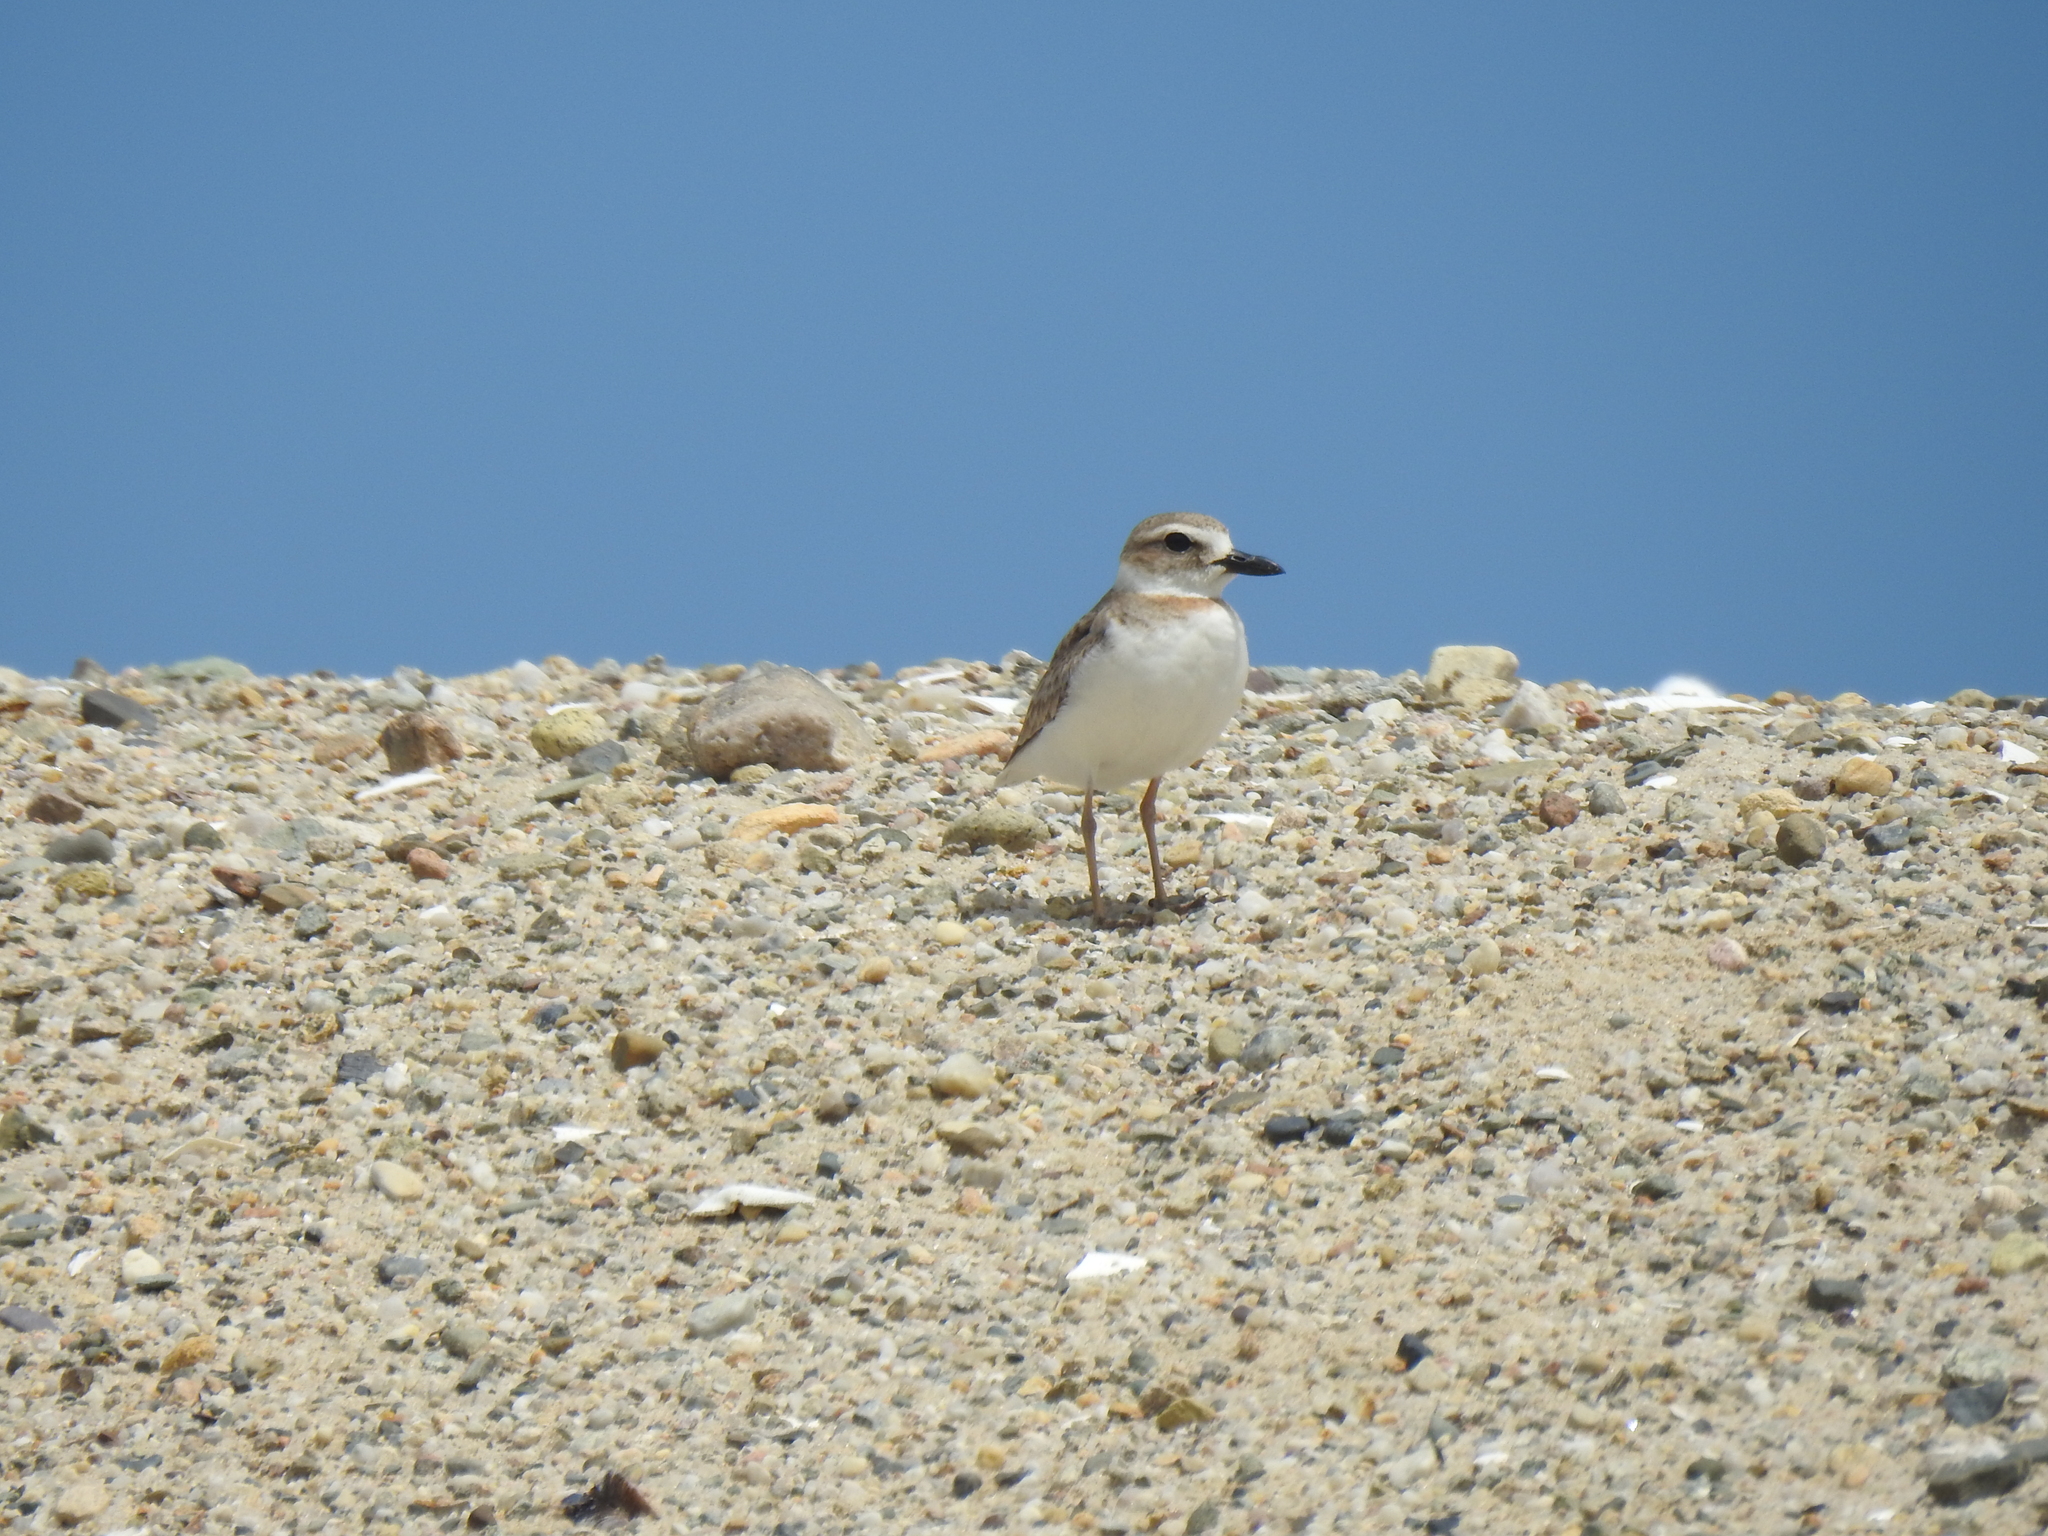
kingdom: Animalia
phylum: Chordata
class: Aves
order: Charadriiformes
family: Charadriidae
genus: Anarhynchus
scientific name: Anarhynchus
